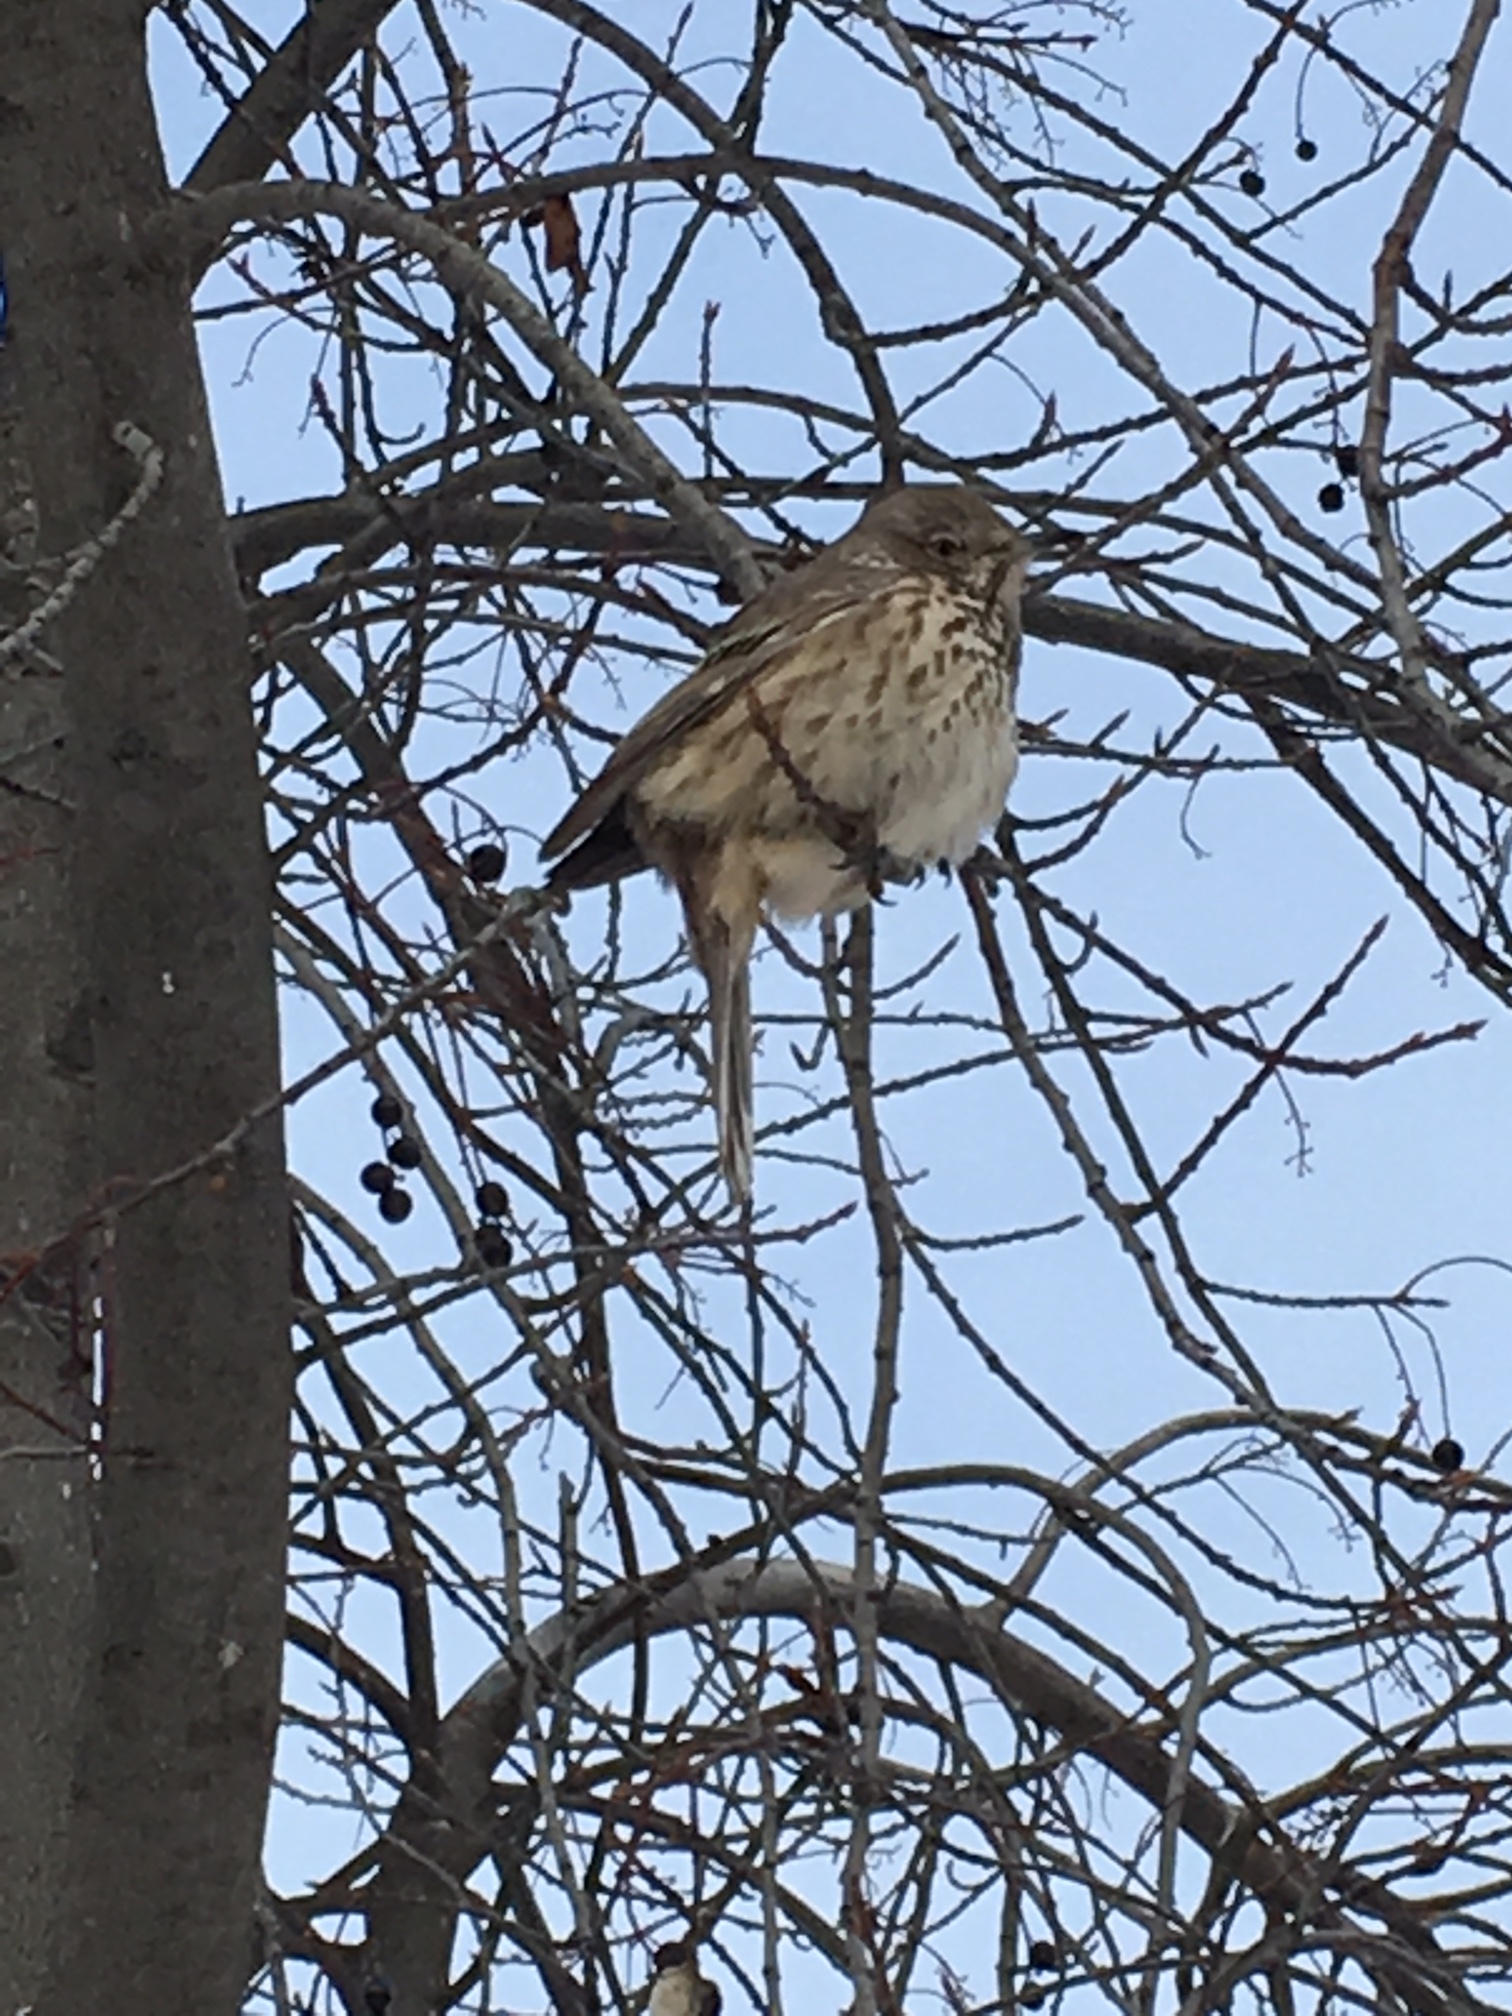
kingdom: Animalia
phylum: Chordata
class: Aves
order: Passeriformes
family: Mimidae
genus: Oreoscoptes
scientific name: Oreoscoptes montanus
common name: Sage thrasher
